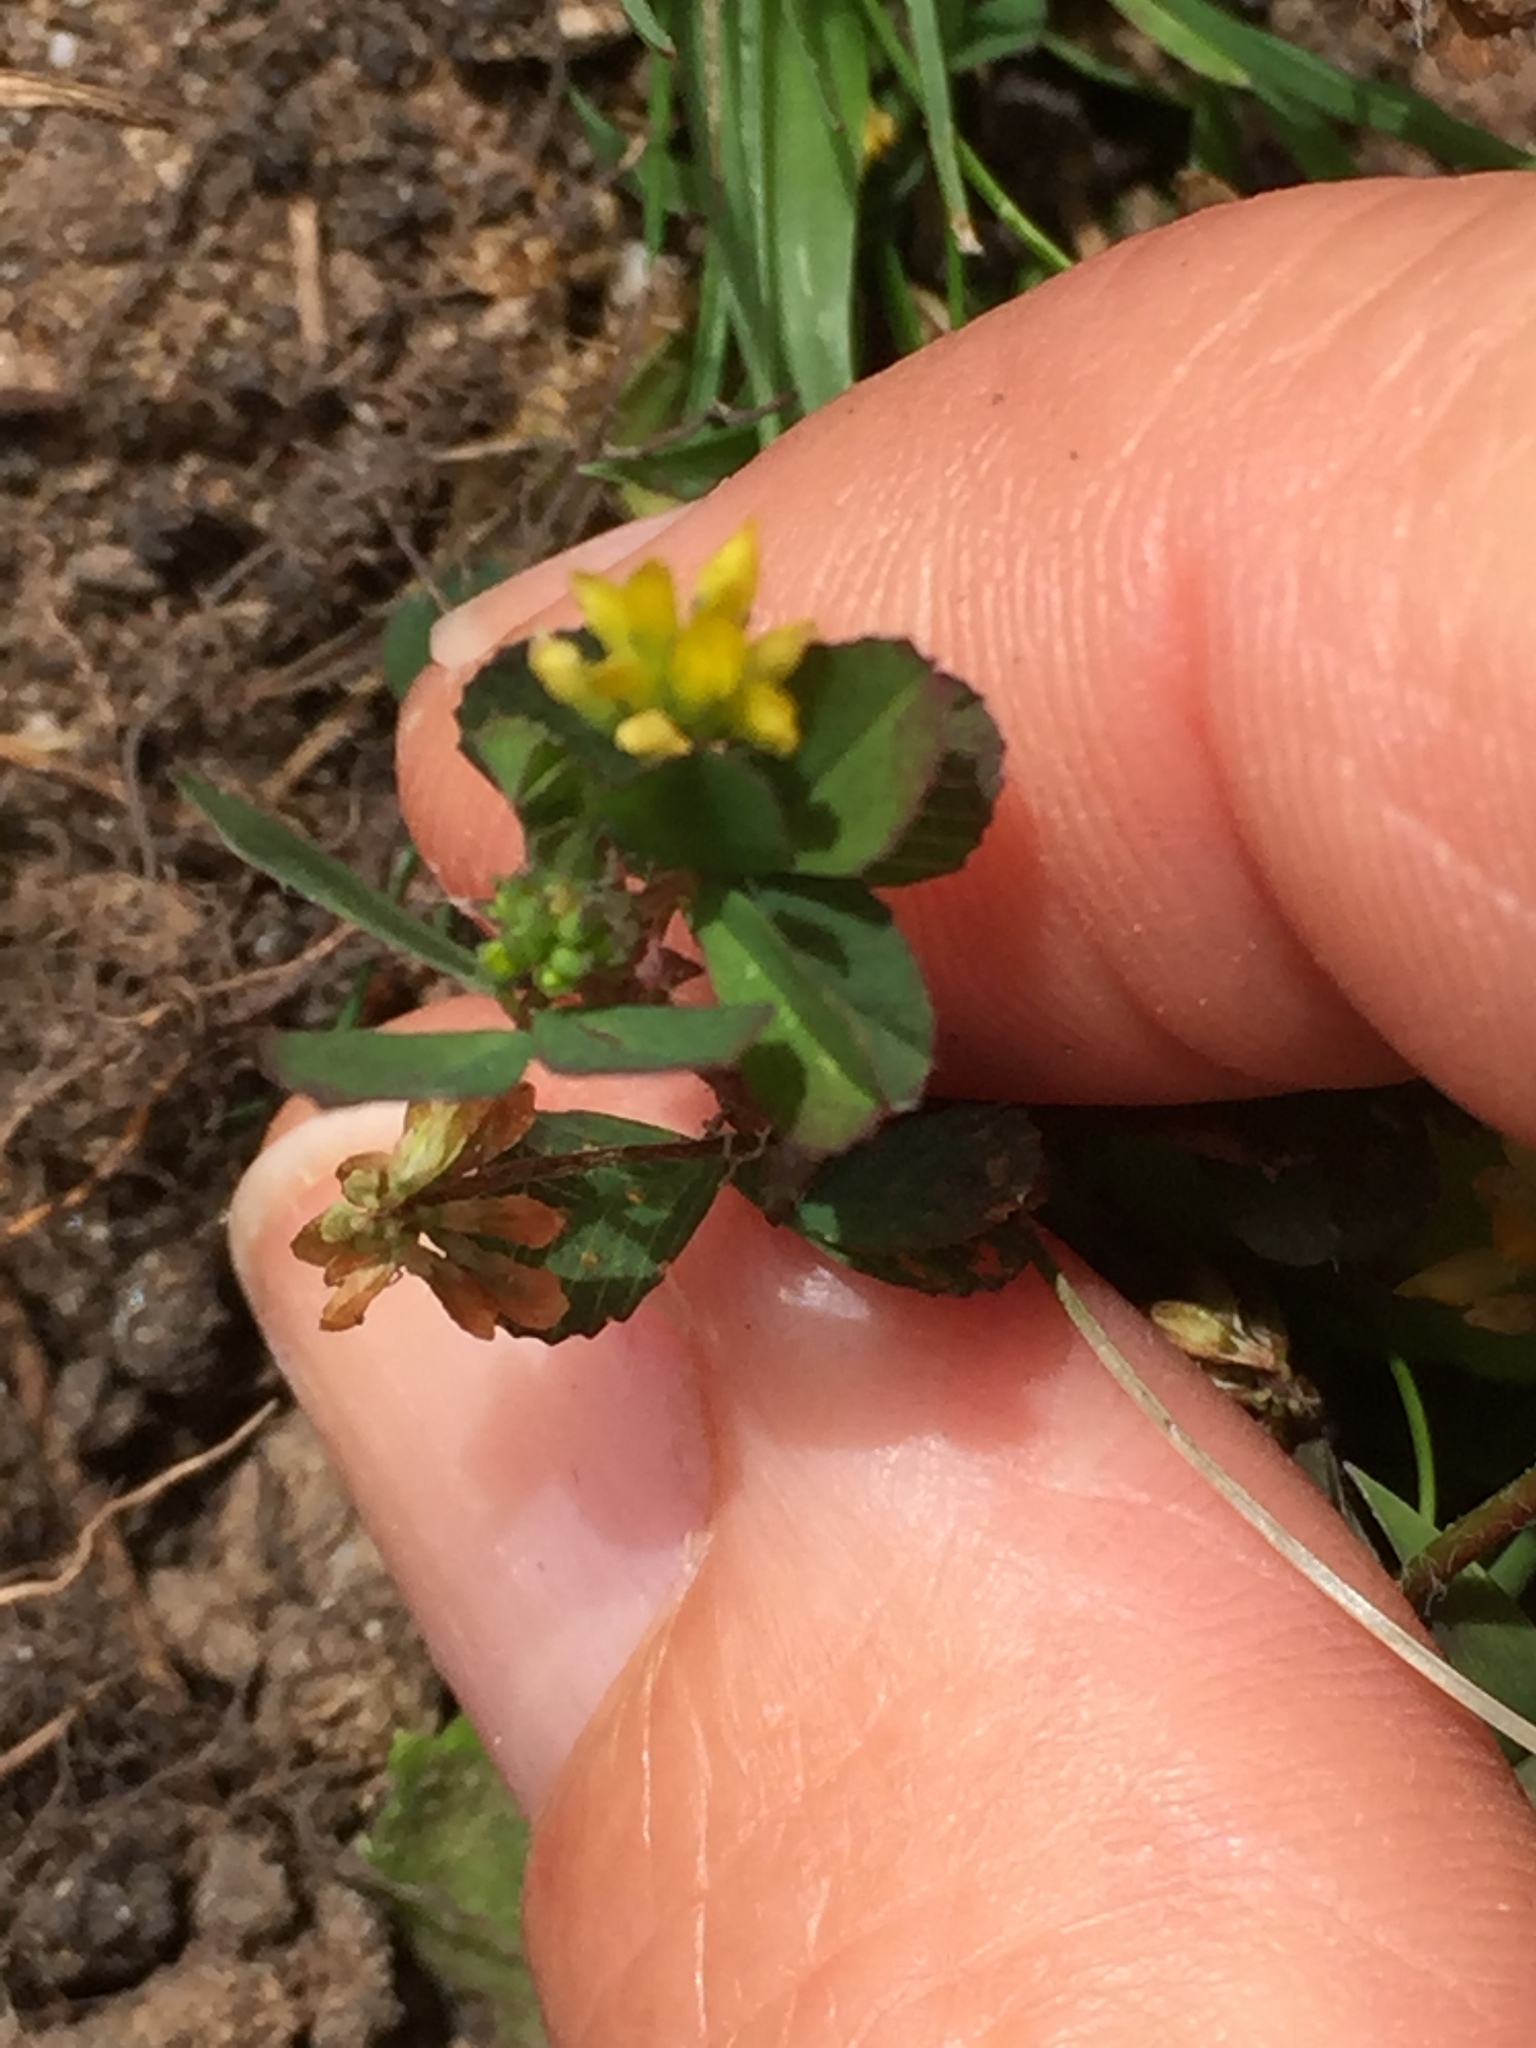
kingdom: Plantae
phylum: Tracheophyta
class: Magnoliopsida
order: Fabales
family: Fabaceae
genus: Trifolium
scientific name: Trifolium dubium
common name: Suckling clover
